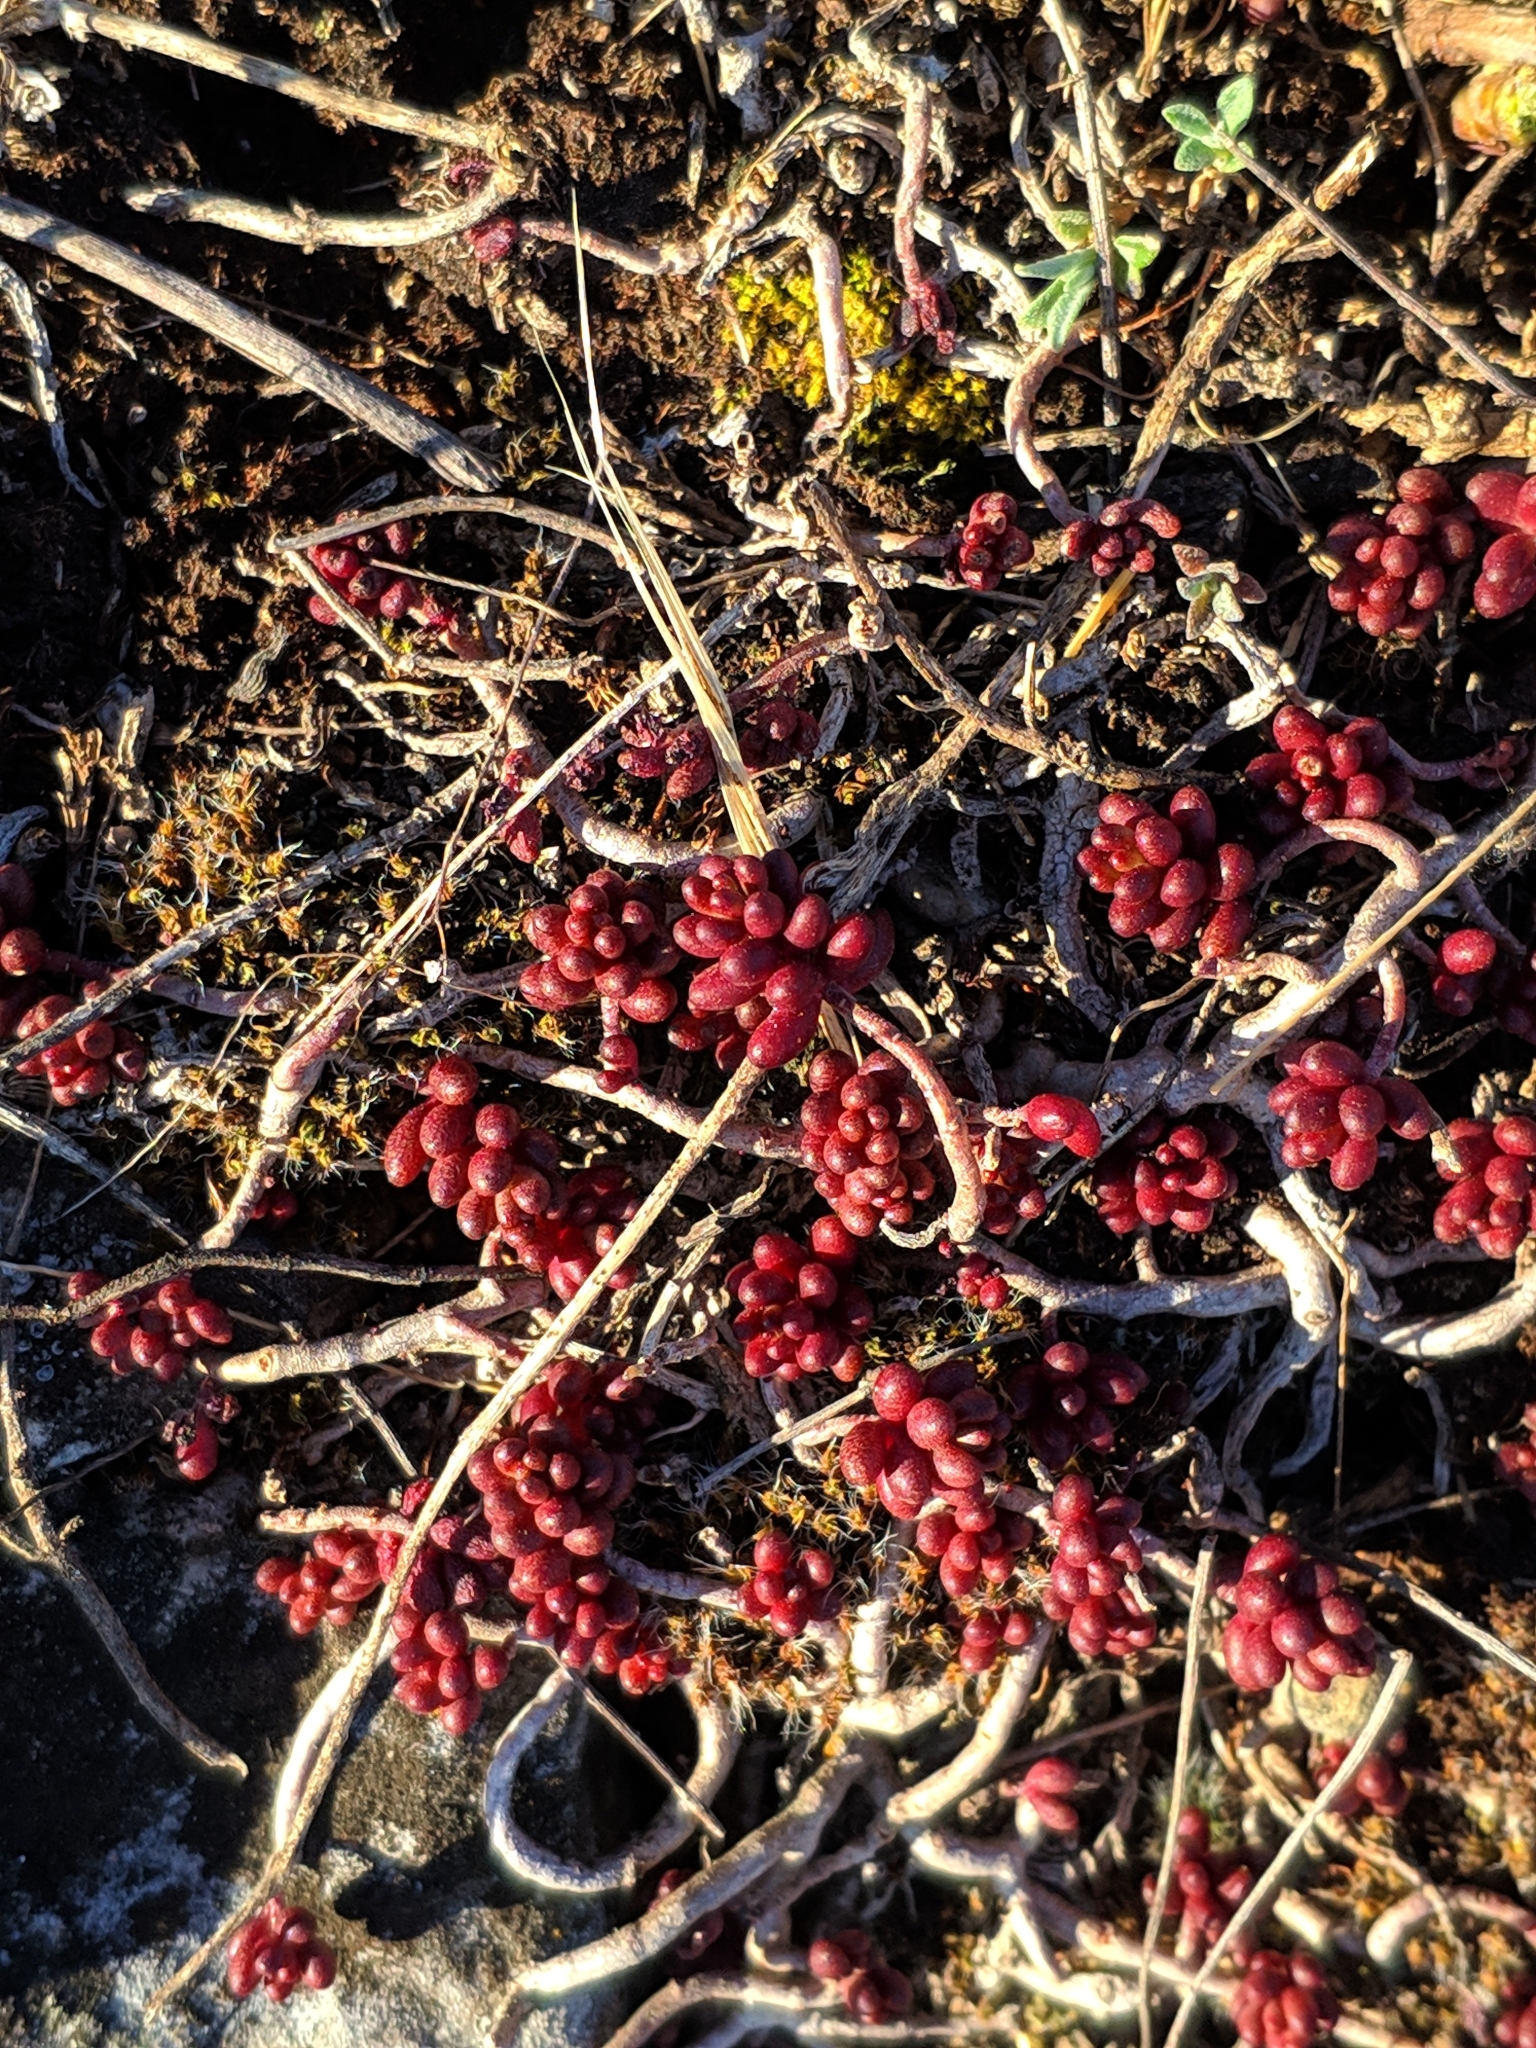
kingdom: Plantae
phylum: Tracheophyta
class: Magnoliopsida
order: Saxifragales
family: Crassulaceae
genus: Sedum
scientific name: Sedum album
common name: White stonecrop
